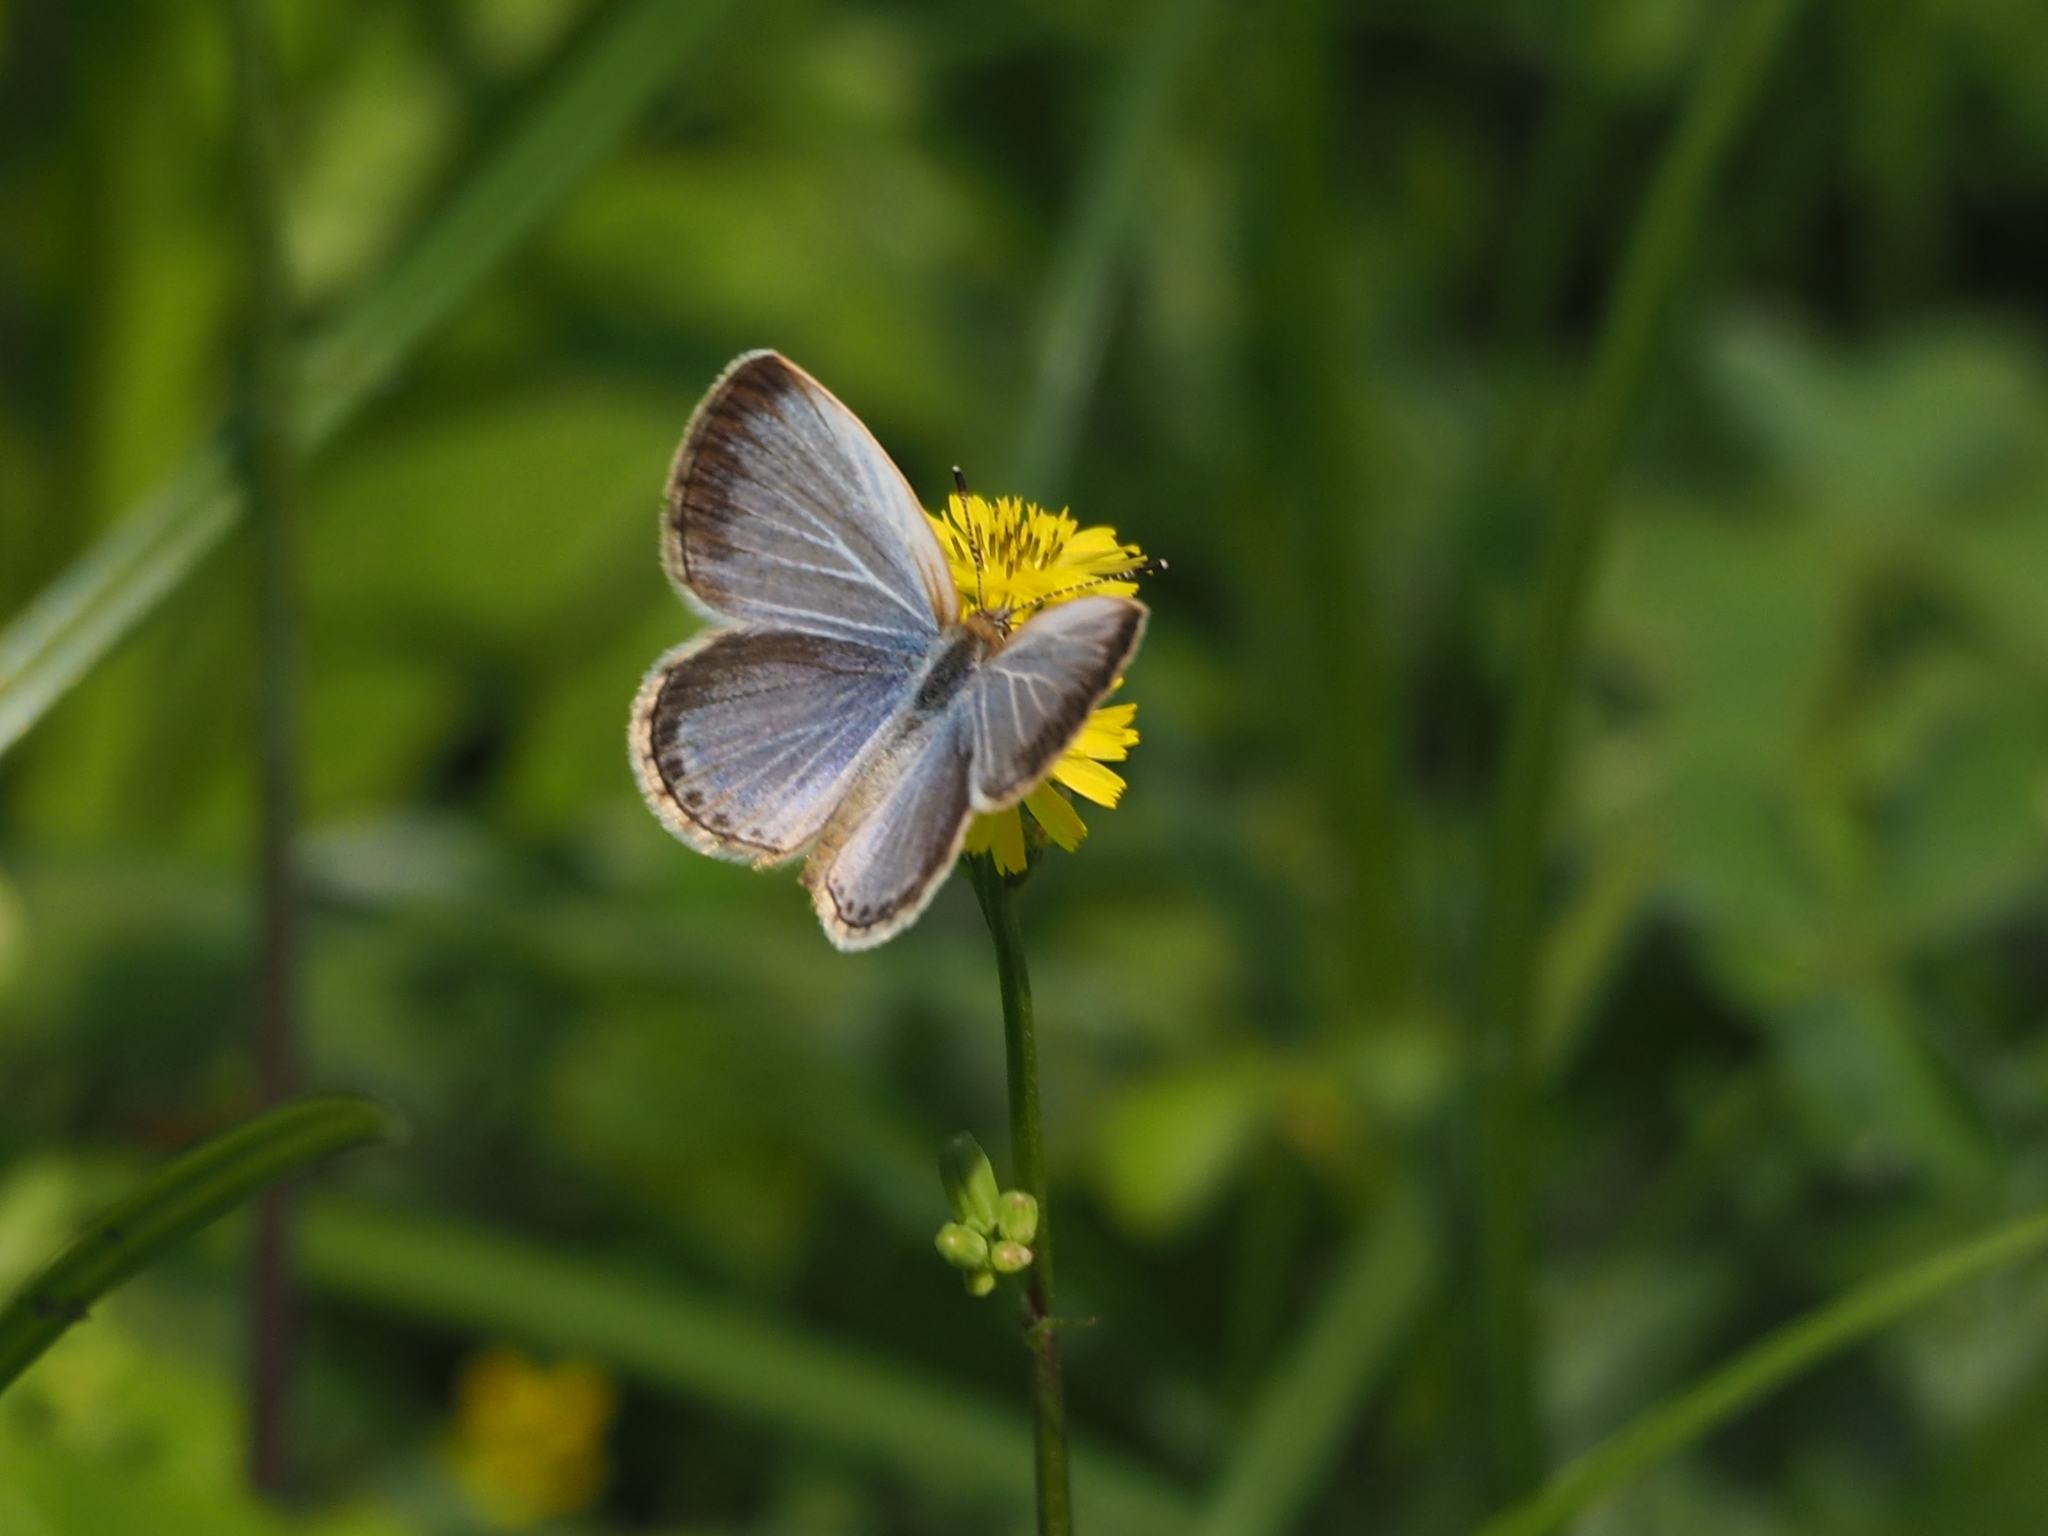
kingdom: Animalia
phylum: Arthropoda
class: Insecta
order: Lepidoptera
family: Lycaenidae
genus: Pseudozizeeria
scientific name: Pseudozizeeria maha
